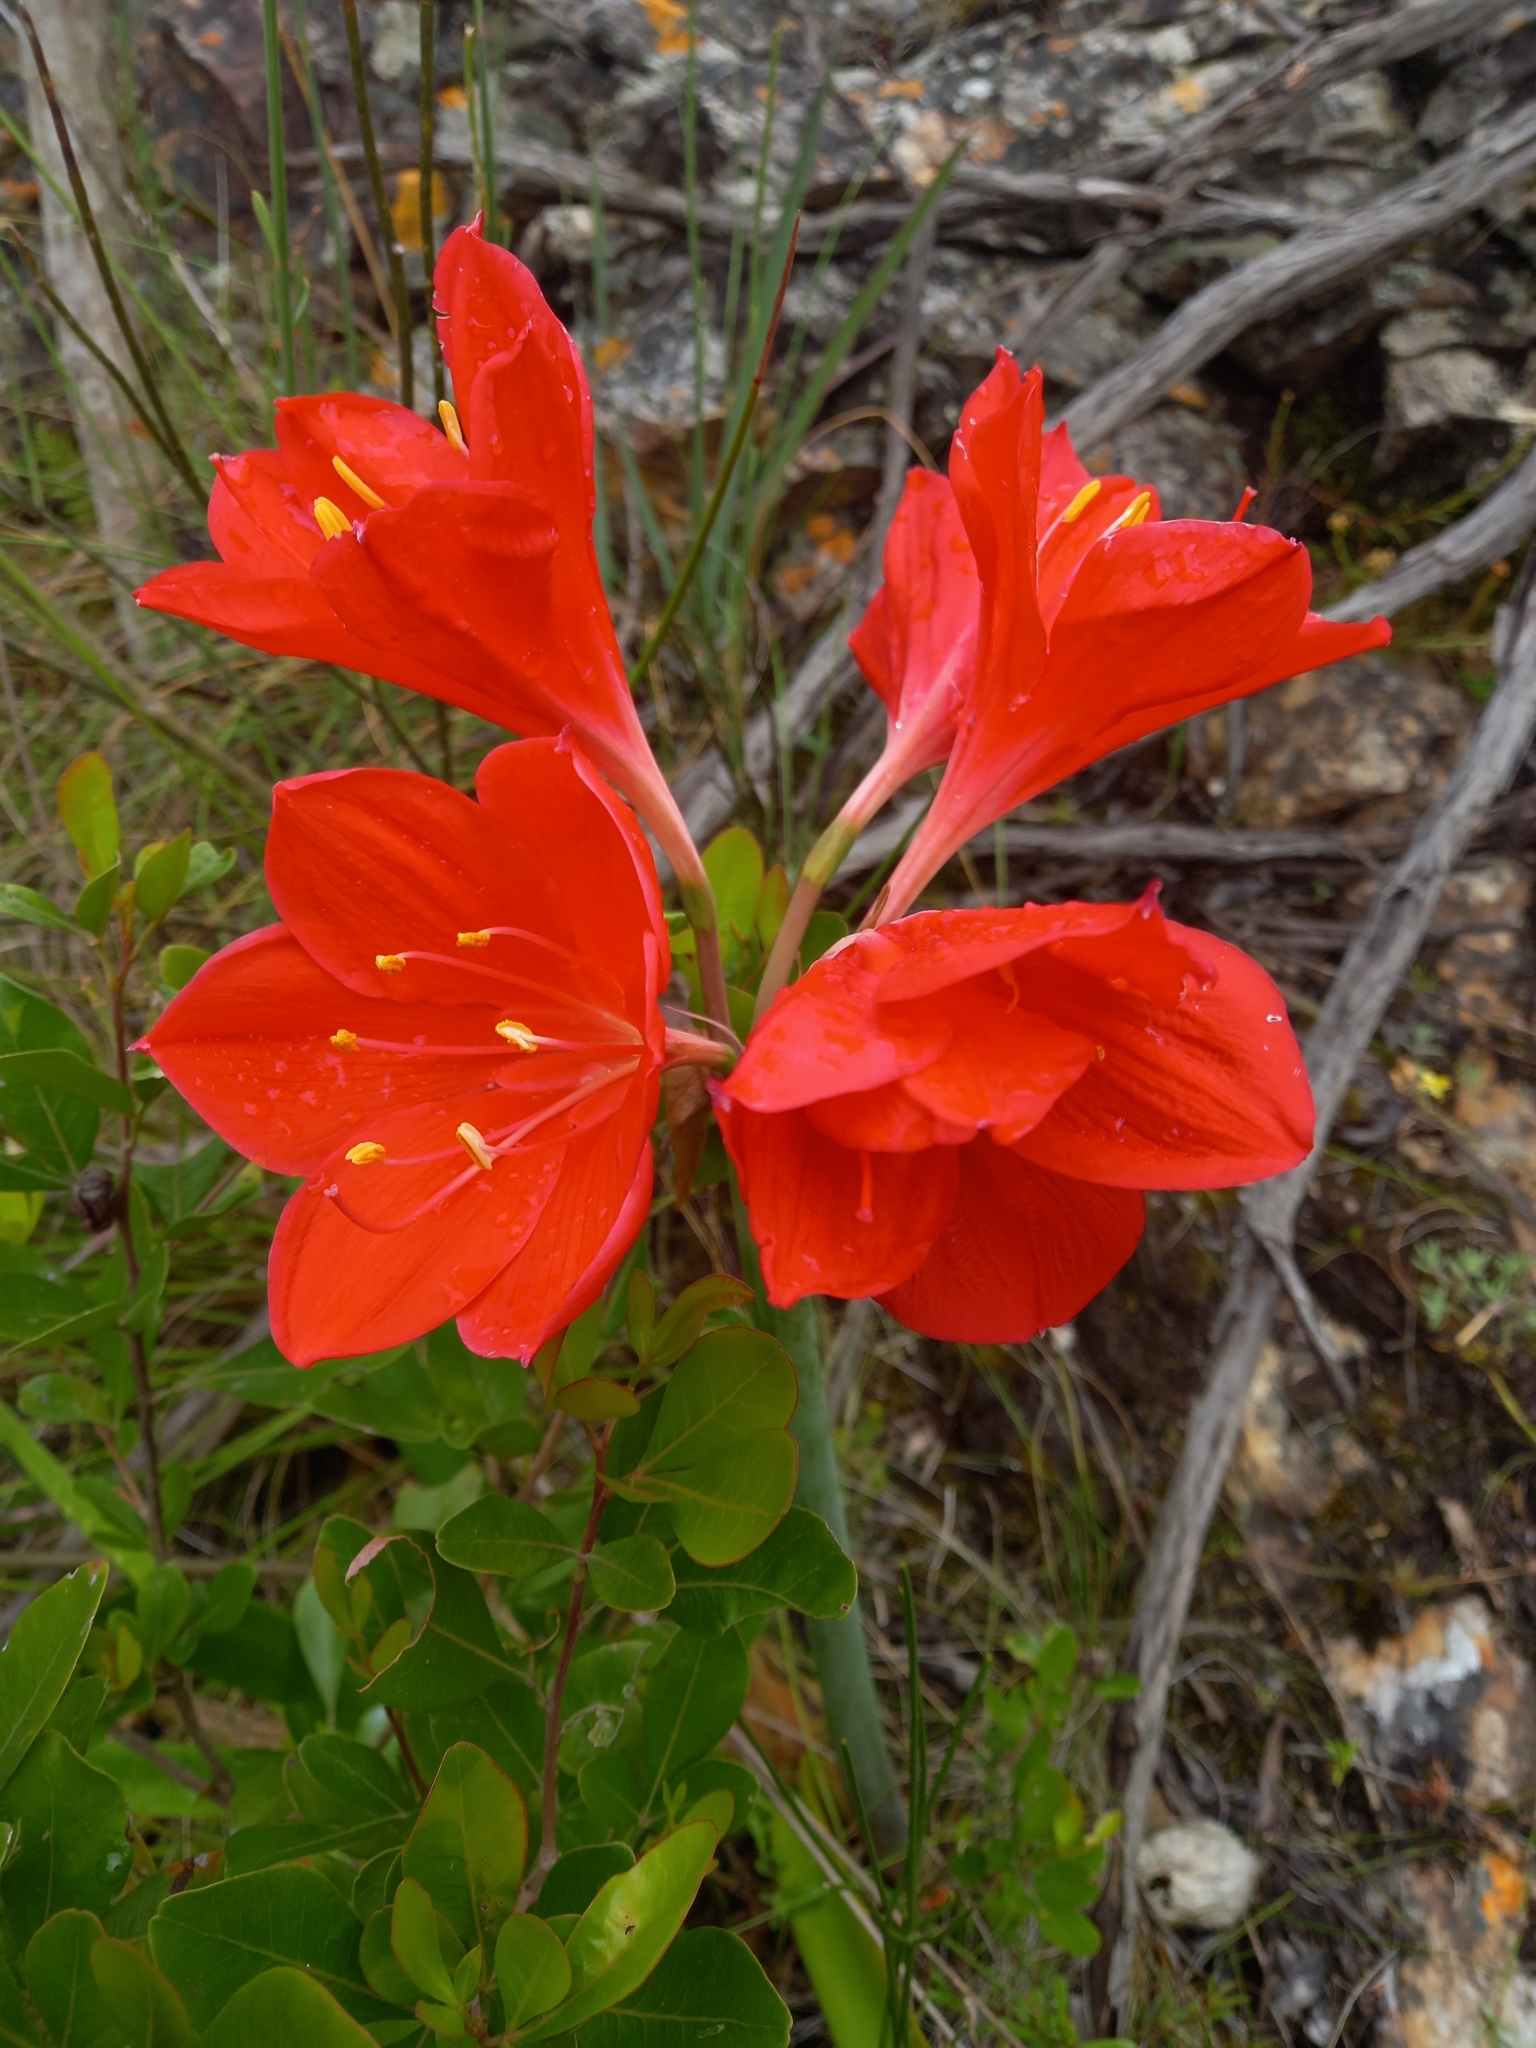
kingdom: Plantae
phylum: Tracheophyta
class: Liliopsida
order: Asparagales
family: Amaryllidaceae
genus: Cyrtanthus
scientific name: Cyrtanthus elatus
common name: Scarborough-lily
